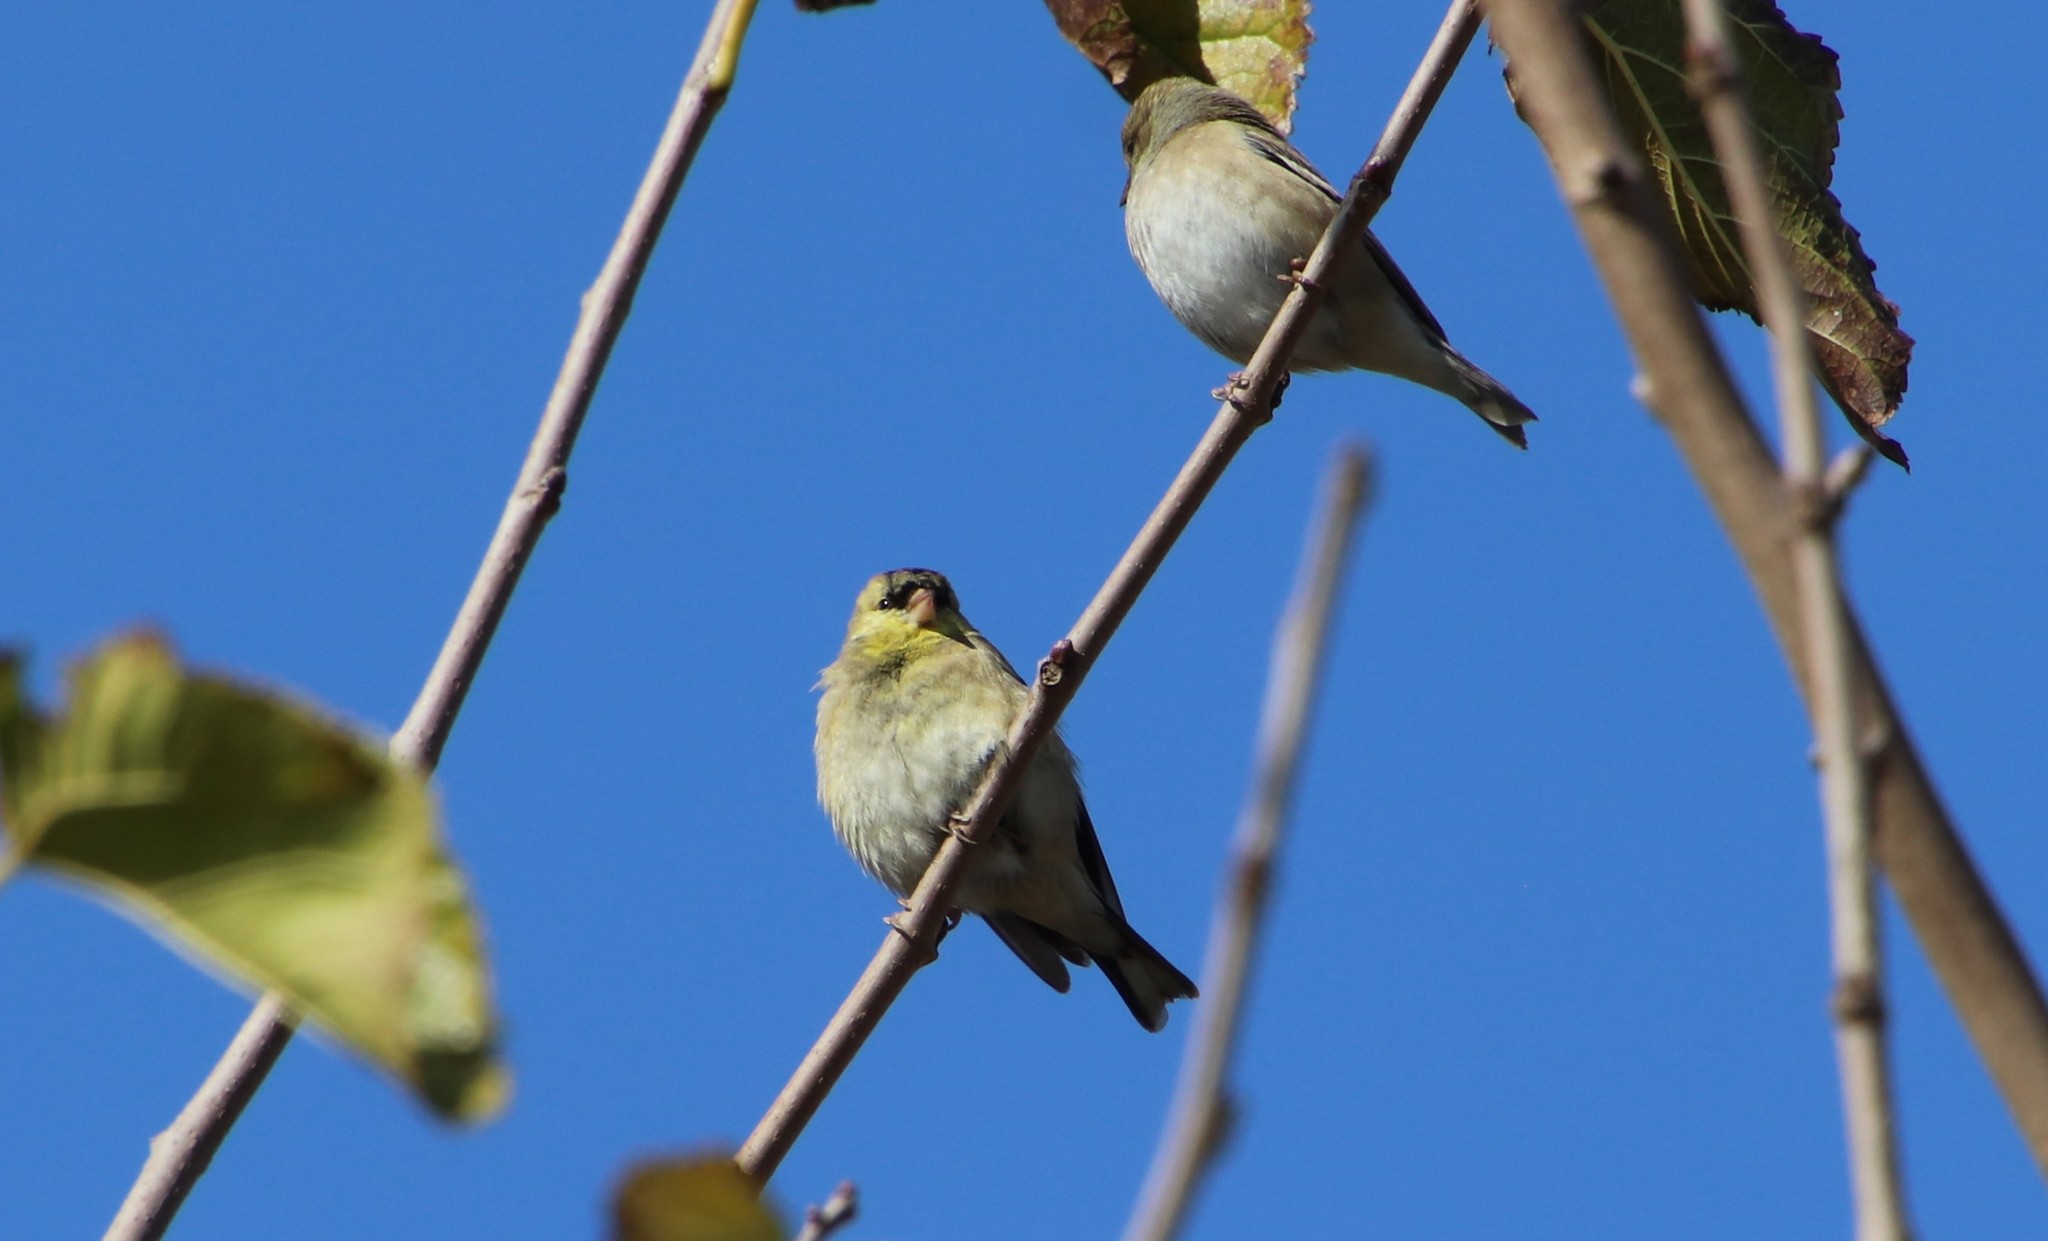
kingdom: Animalia
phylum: Chordata
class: Aves
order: Passeriformes
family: Fringillidae
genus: Spinus
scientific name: Spinus tristis
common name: American goldfinch
